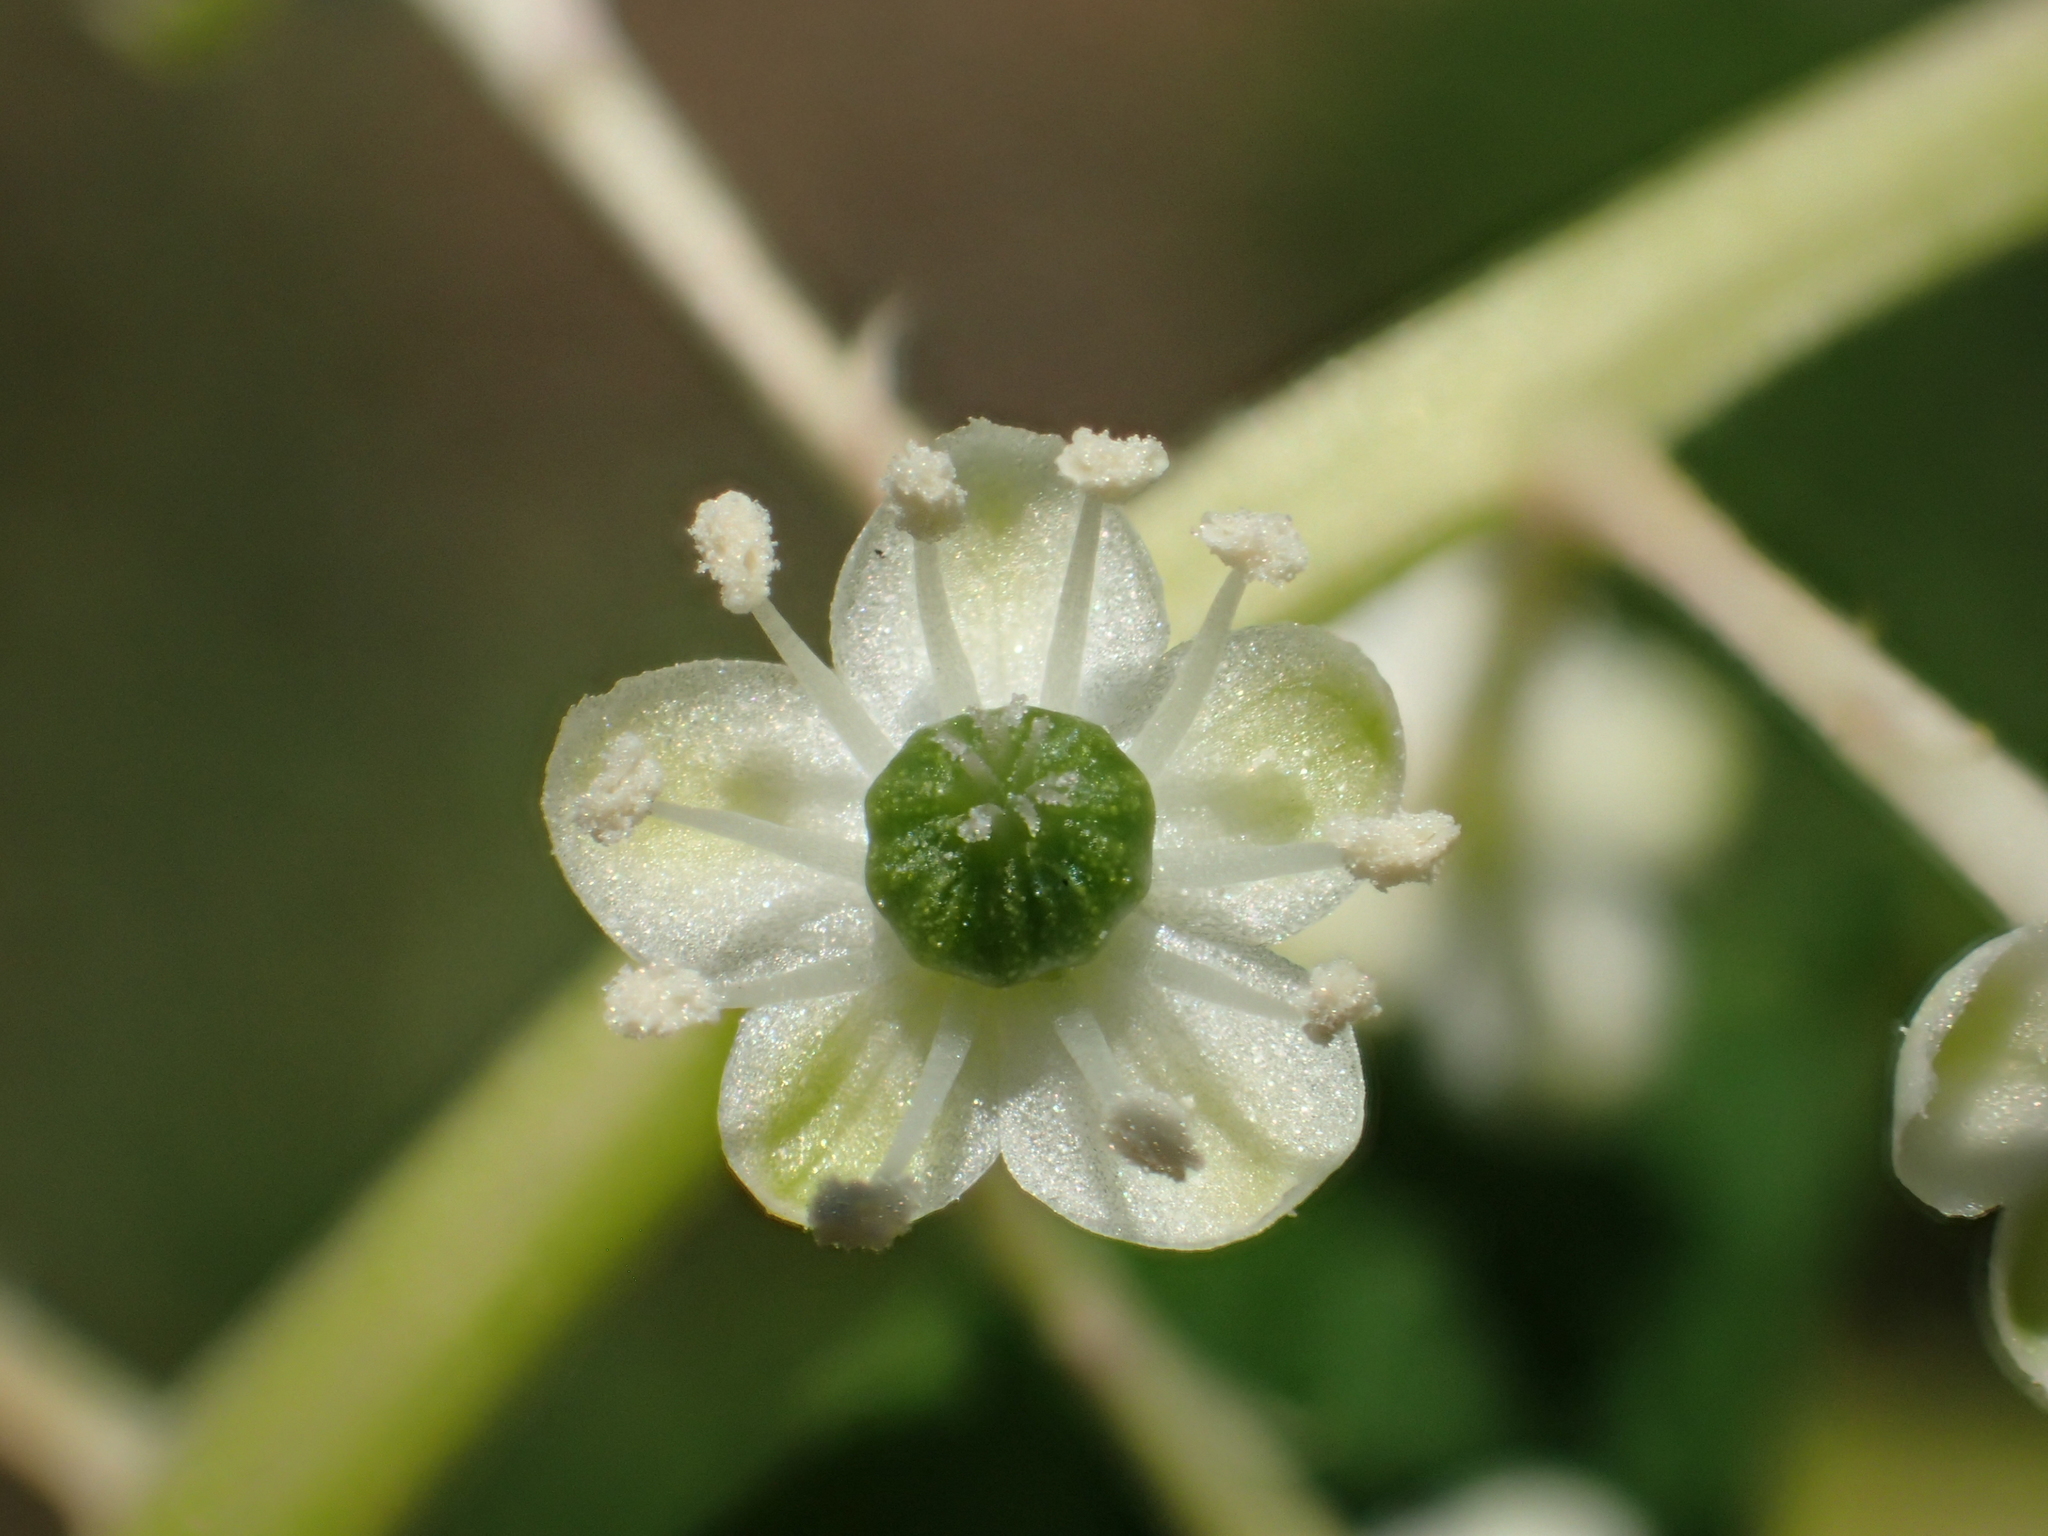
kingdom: Plantae
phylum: Tracheophyta
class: Magnoliopsida
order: Caryophyllales
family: Phytolaccaceae
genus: Phytolacca
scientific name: Phytolacca americana
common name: American pokeweed
